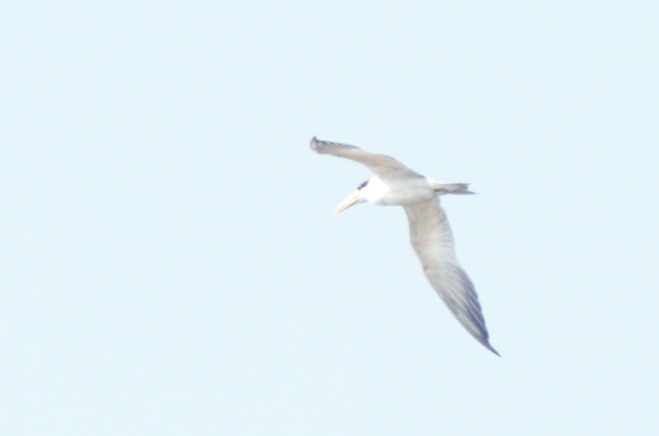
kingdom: Animalia
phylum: Chordata
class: Aves
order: Charadriiformes
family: Laridae
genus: Phaetusa
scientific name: Phaetusa simplex
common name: Large-billed tern
